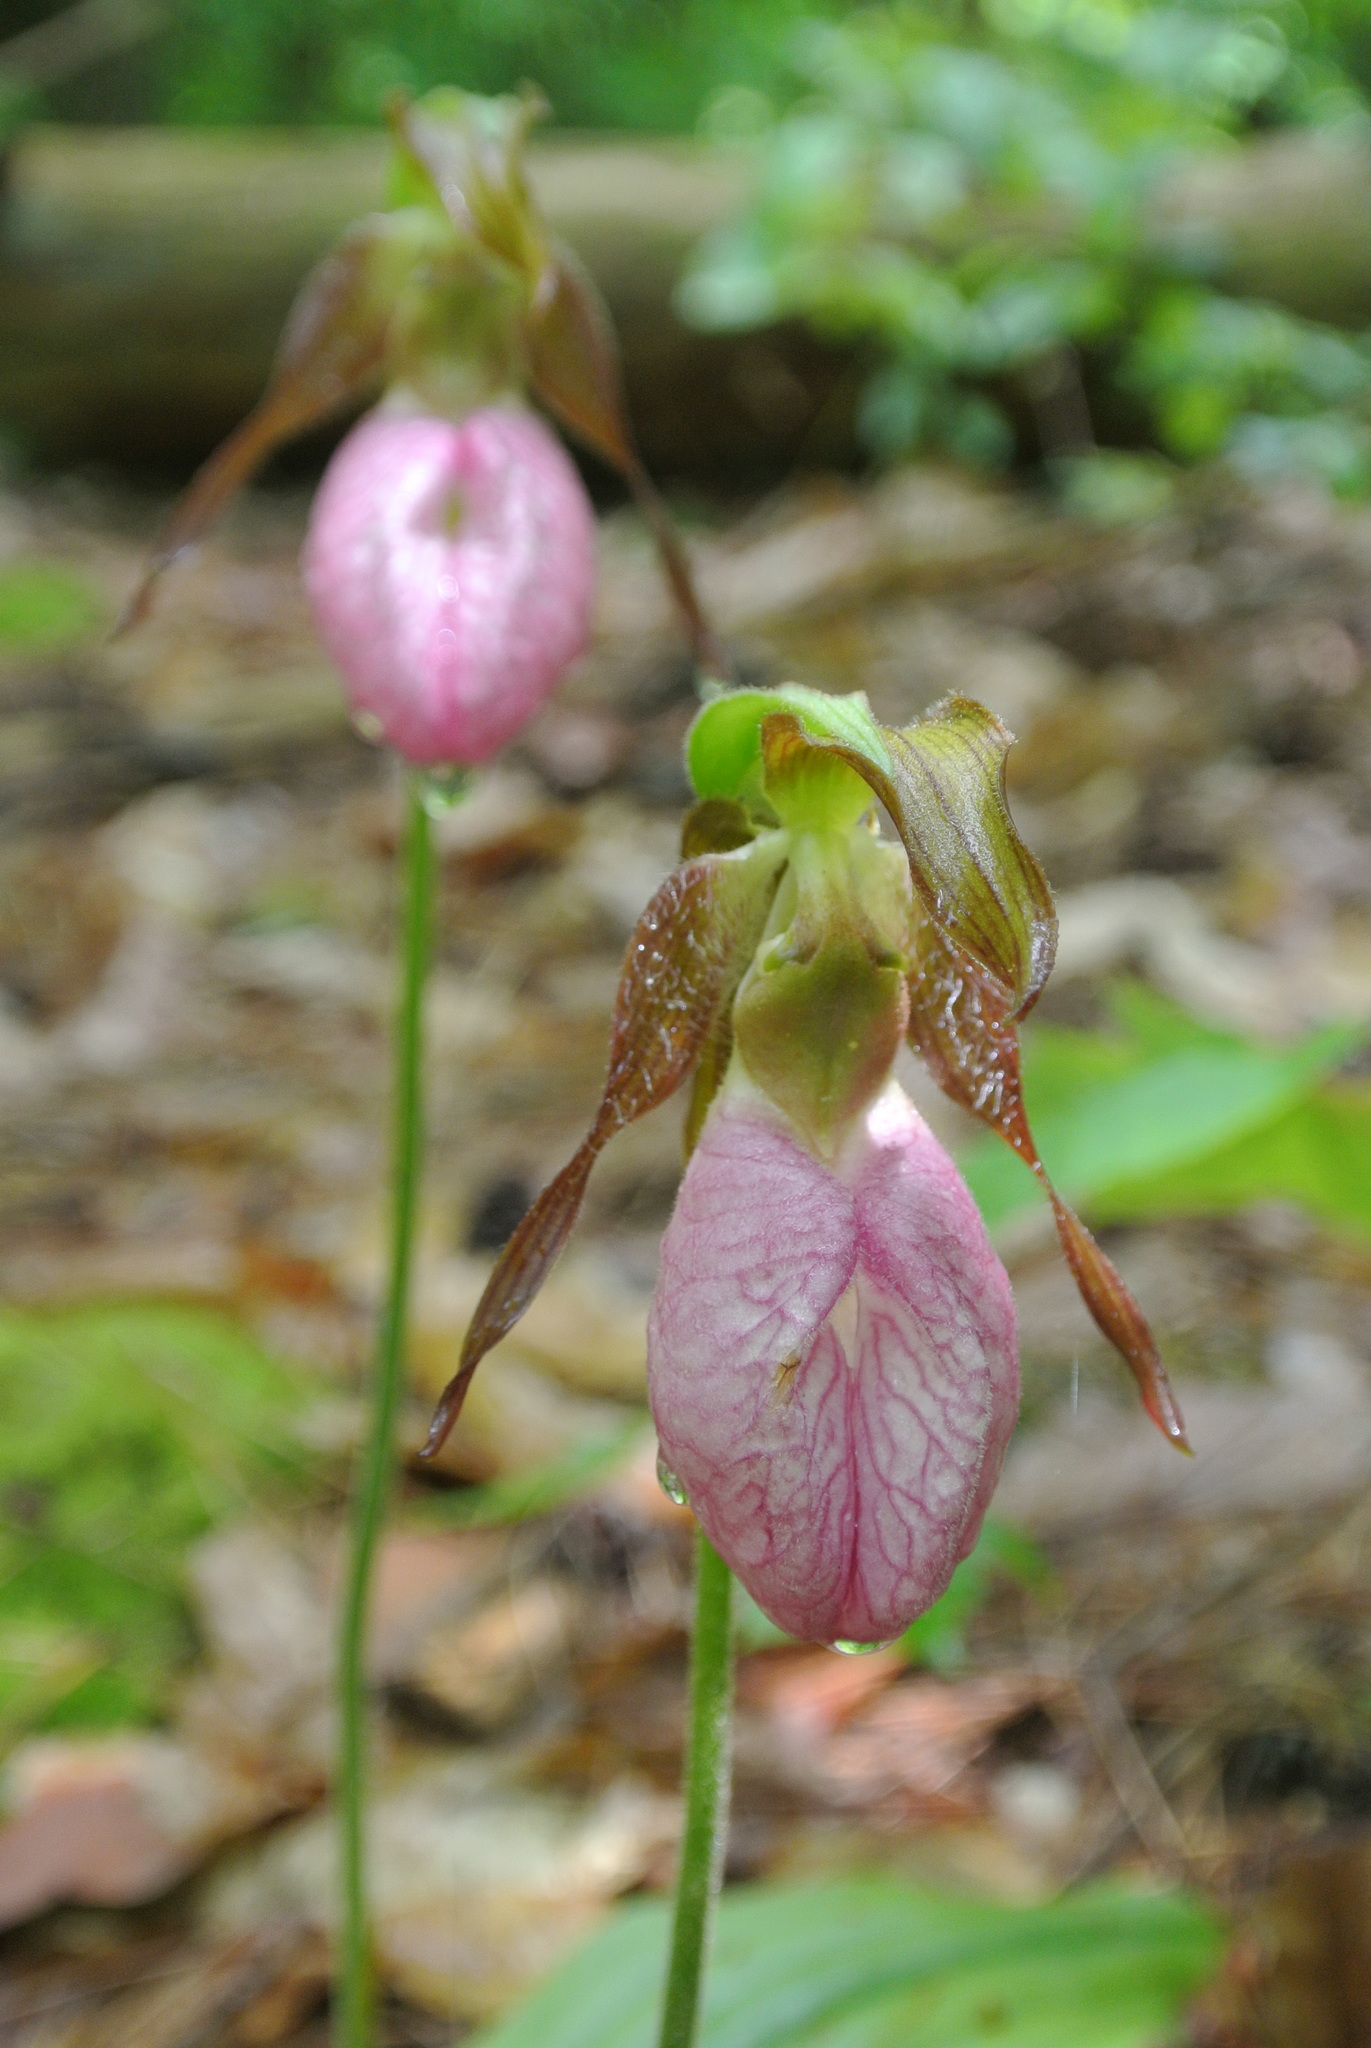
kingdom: Plantae
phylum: Tracheophyta
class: Liliopsida
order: Asparagales
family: Orchidaceae
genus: Cypripedium
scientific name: Cypripedium acaule
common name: Pink lady's-slipper
